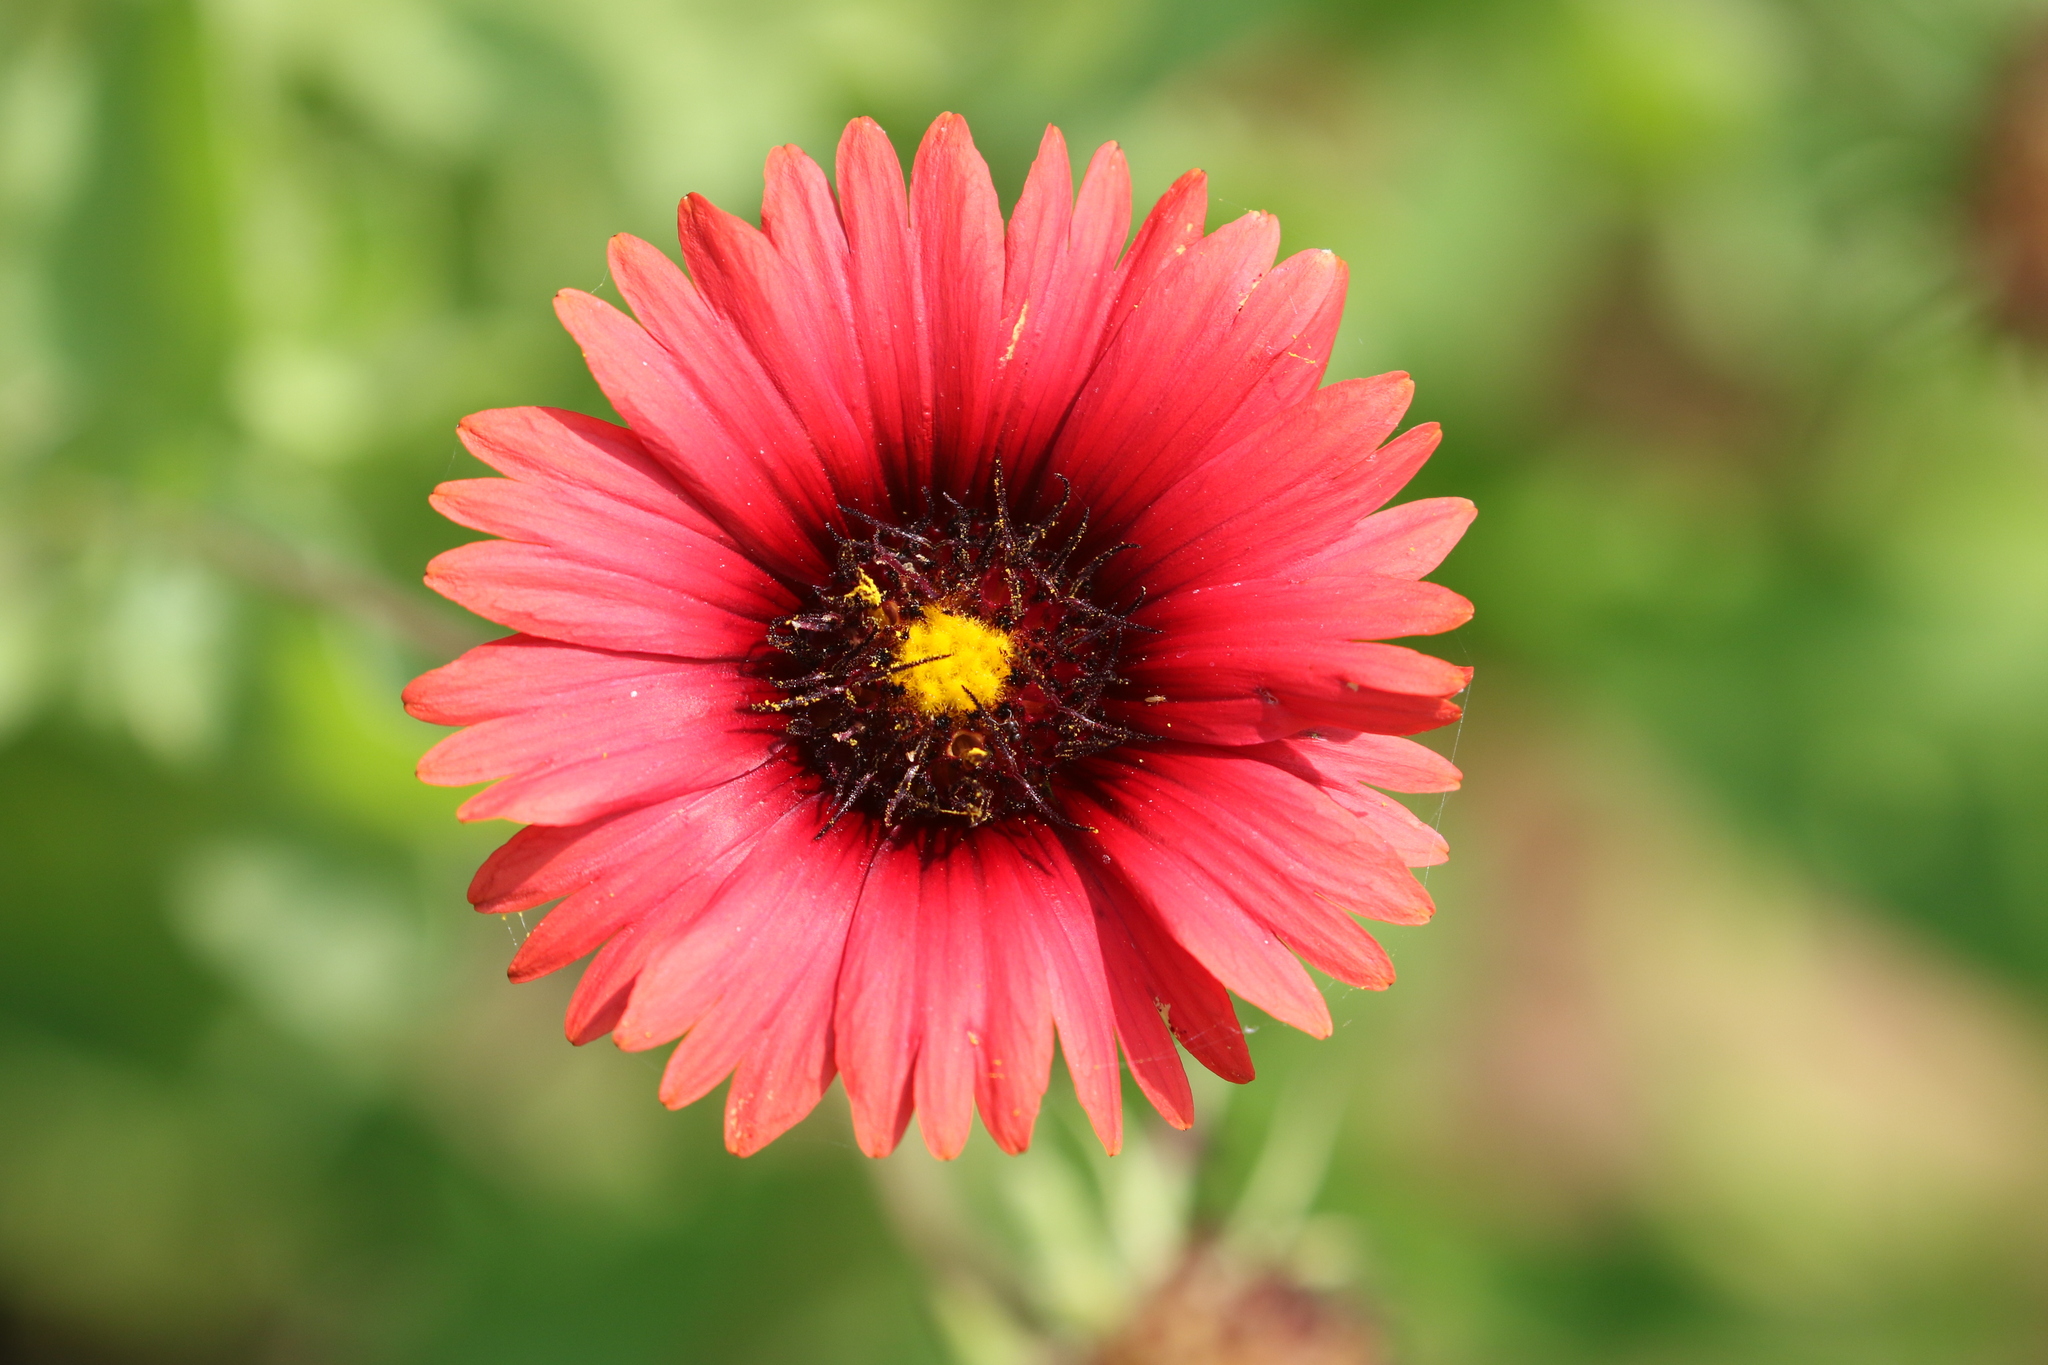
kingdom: Plantae
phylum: Tracheophyta
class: Magnoliopsida
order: Asterales
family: Asteraceae
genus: Gaillardia
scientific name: Gaillardia amblyodon
